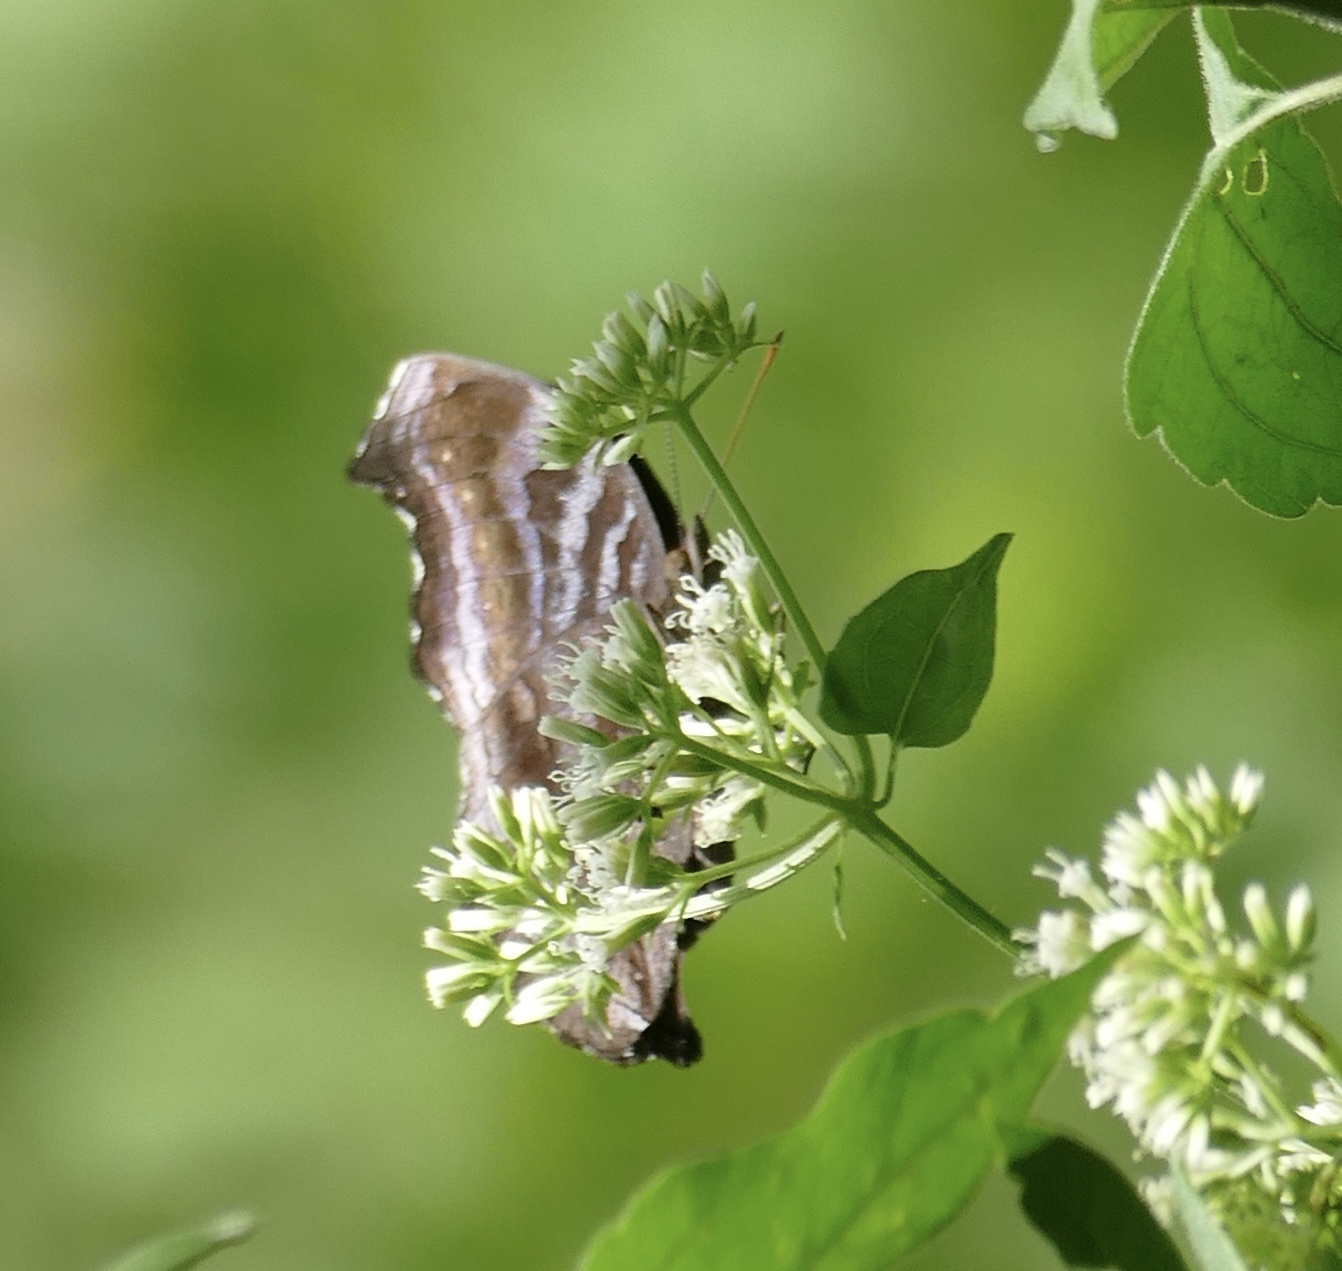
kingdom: Animalia
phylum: Arthropoda
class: Insecta
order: Lepidoptera
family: Nymphalidae
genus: Junonia
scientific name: Junonia
